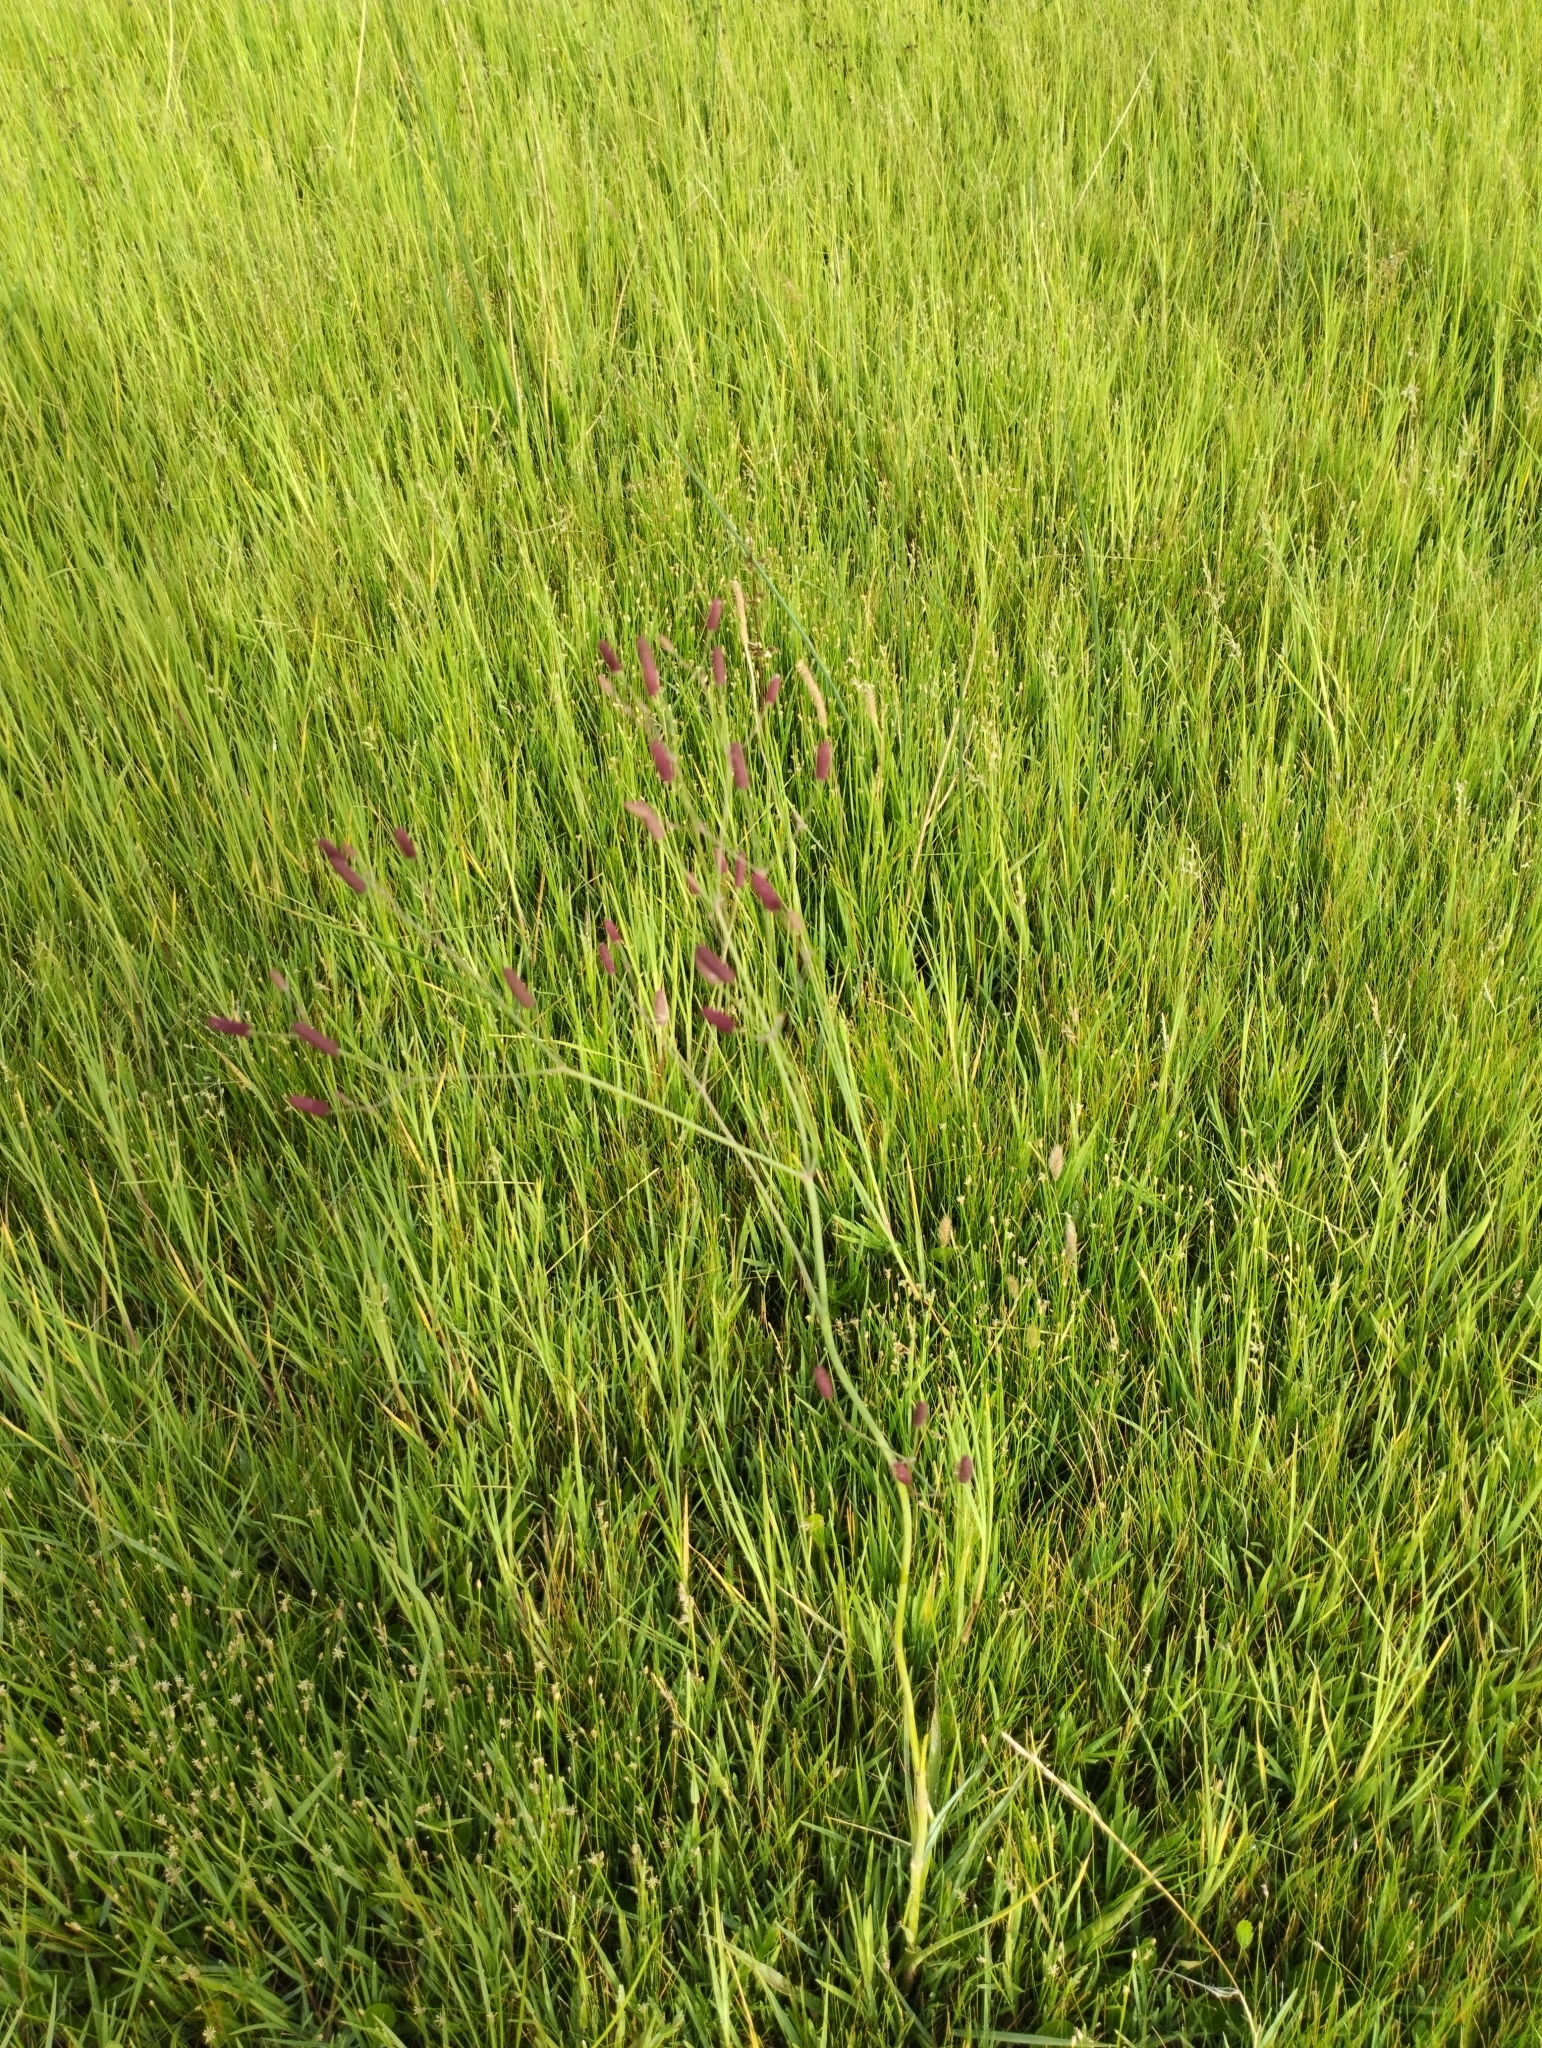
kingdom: Plantae
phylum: Tracheophyta
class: Magnoliopsida
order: Apiales
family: Apiaceae
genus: Eryngium
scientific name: Eryngium ebracteatum
